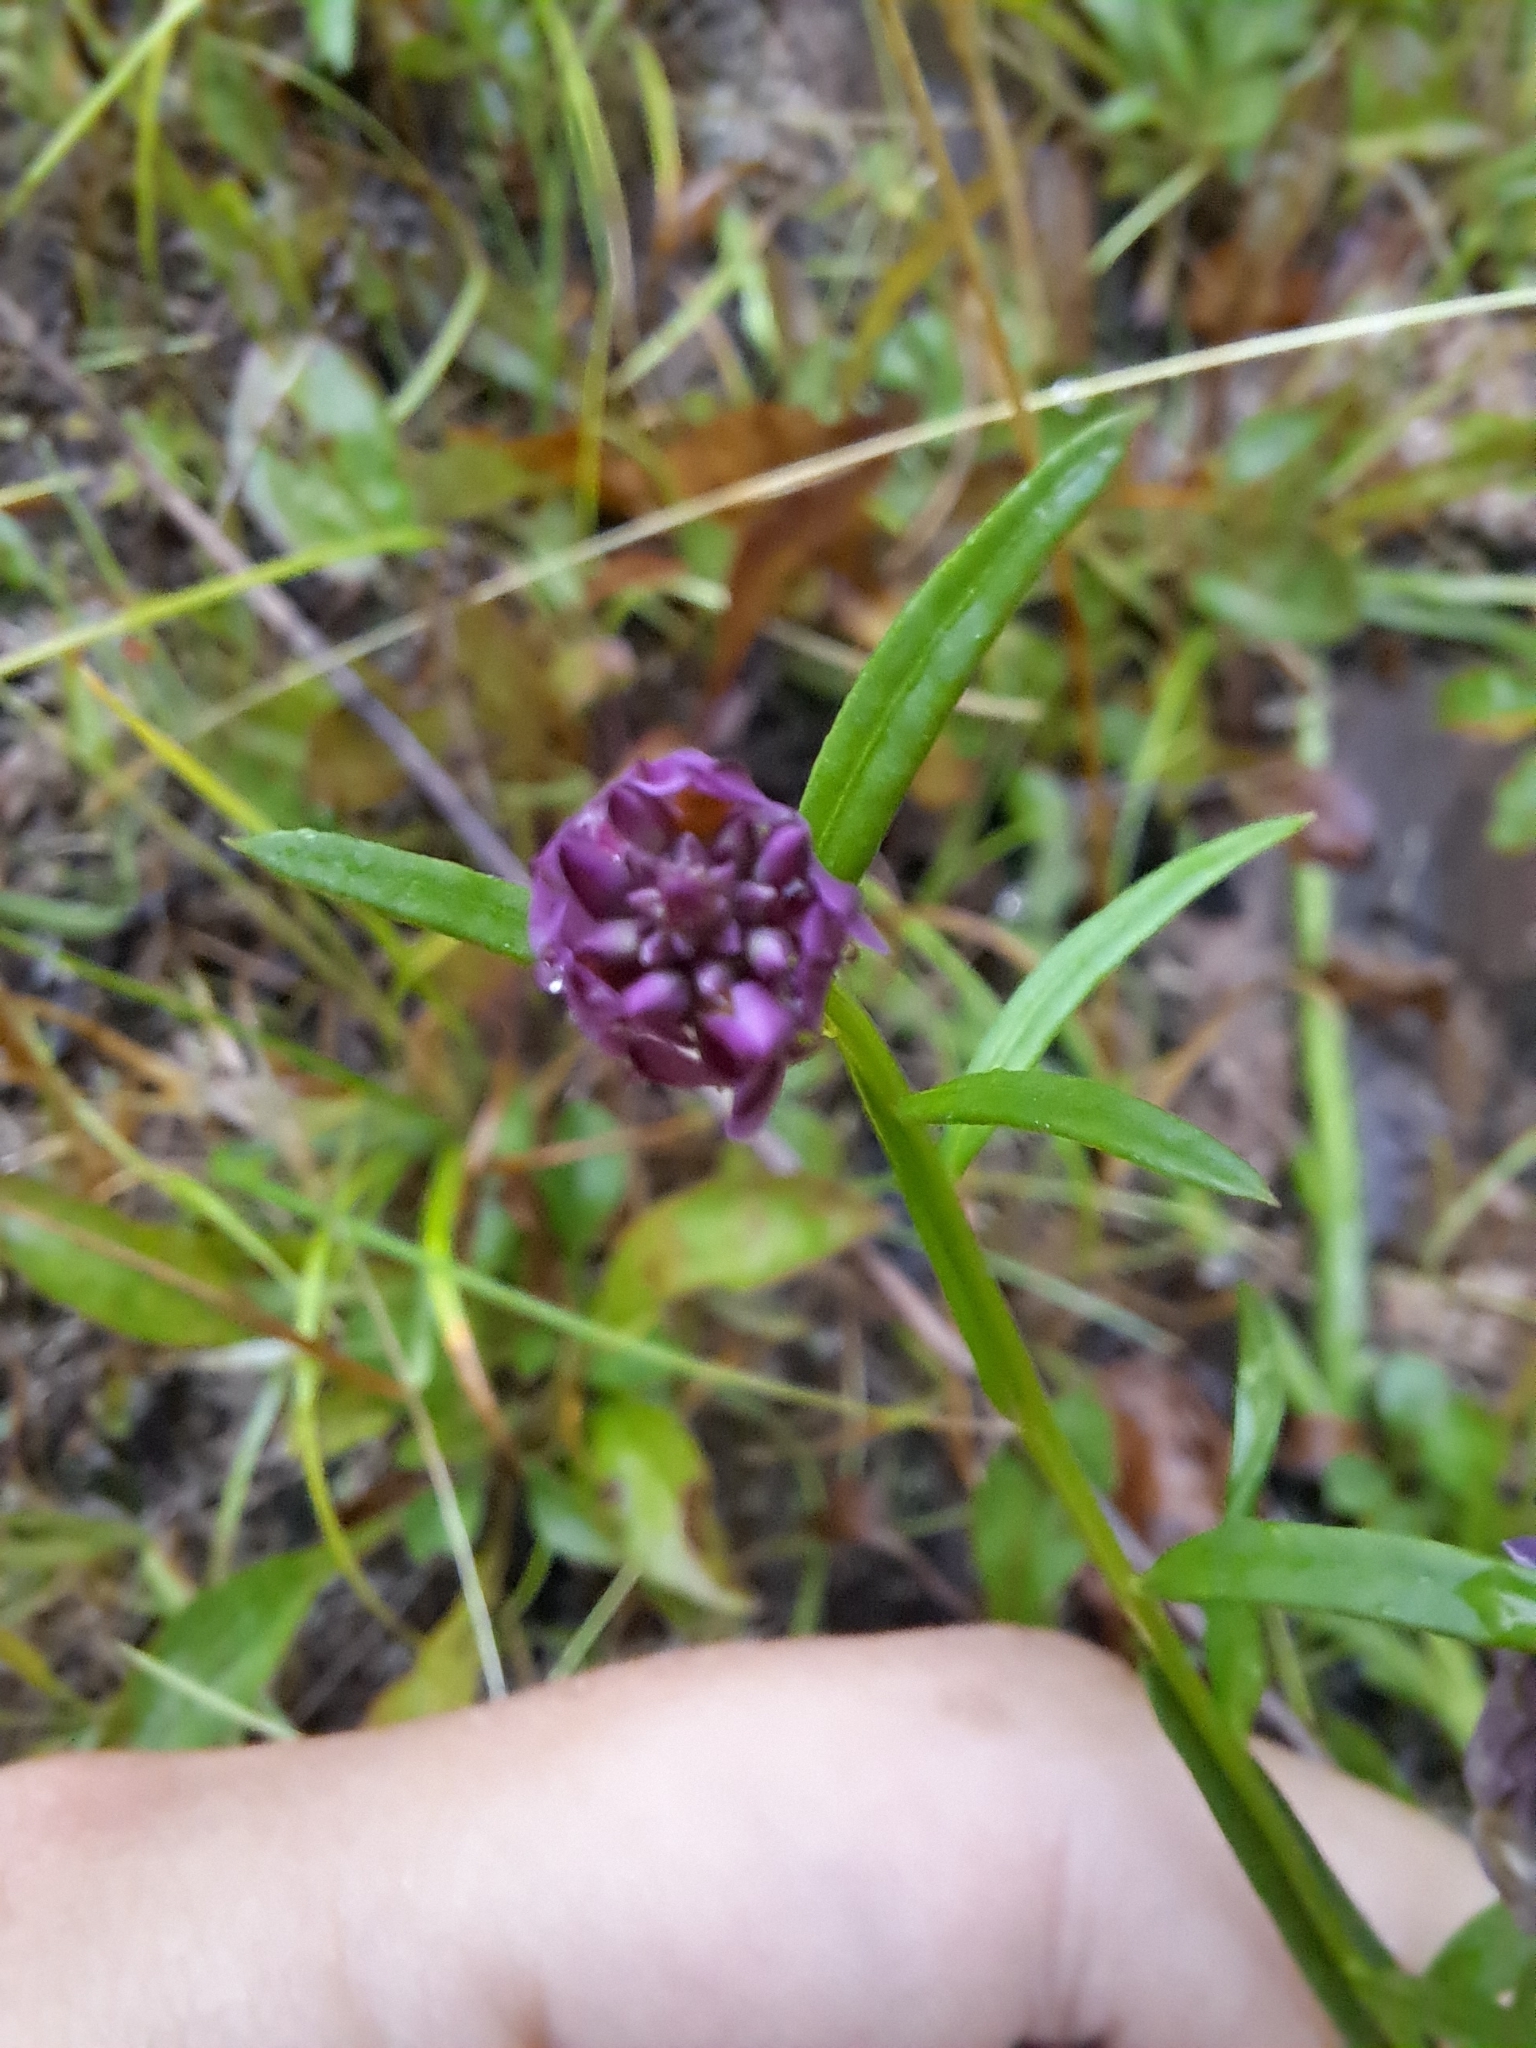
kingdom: Plantae
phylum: Tracheophyta
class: Magnoliopsida
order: Fabales
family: Polygalaceae
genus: Polygala
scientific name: Polygala sanguinea
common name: Blood milkwort
